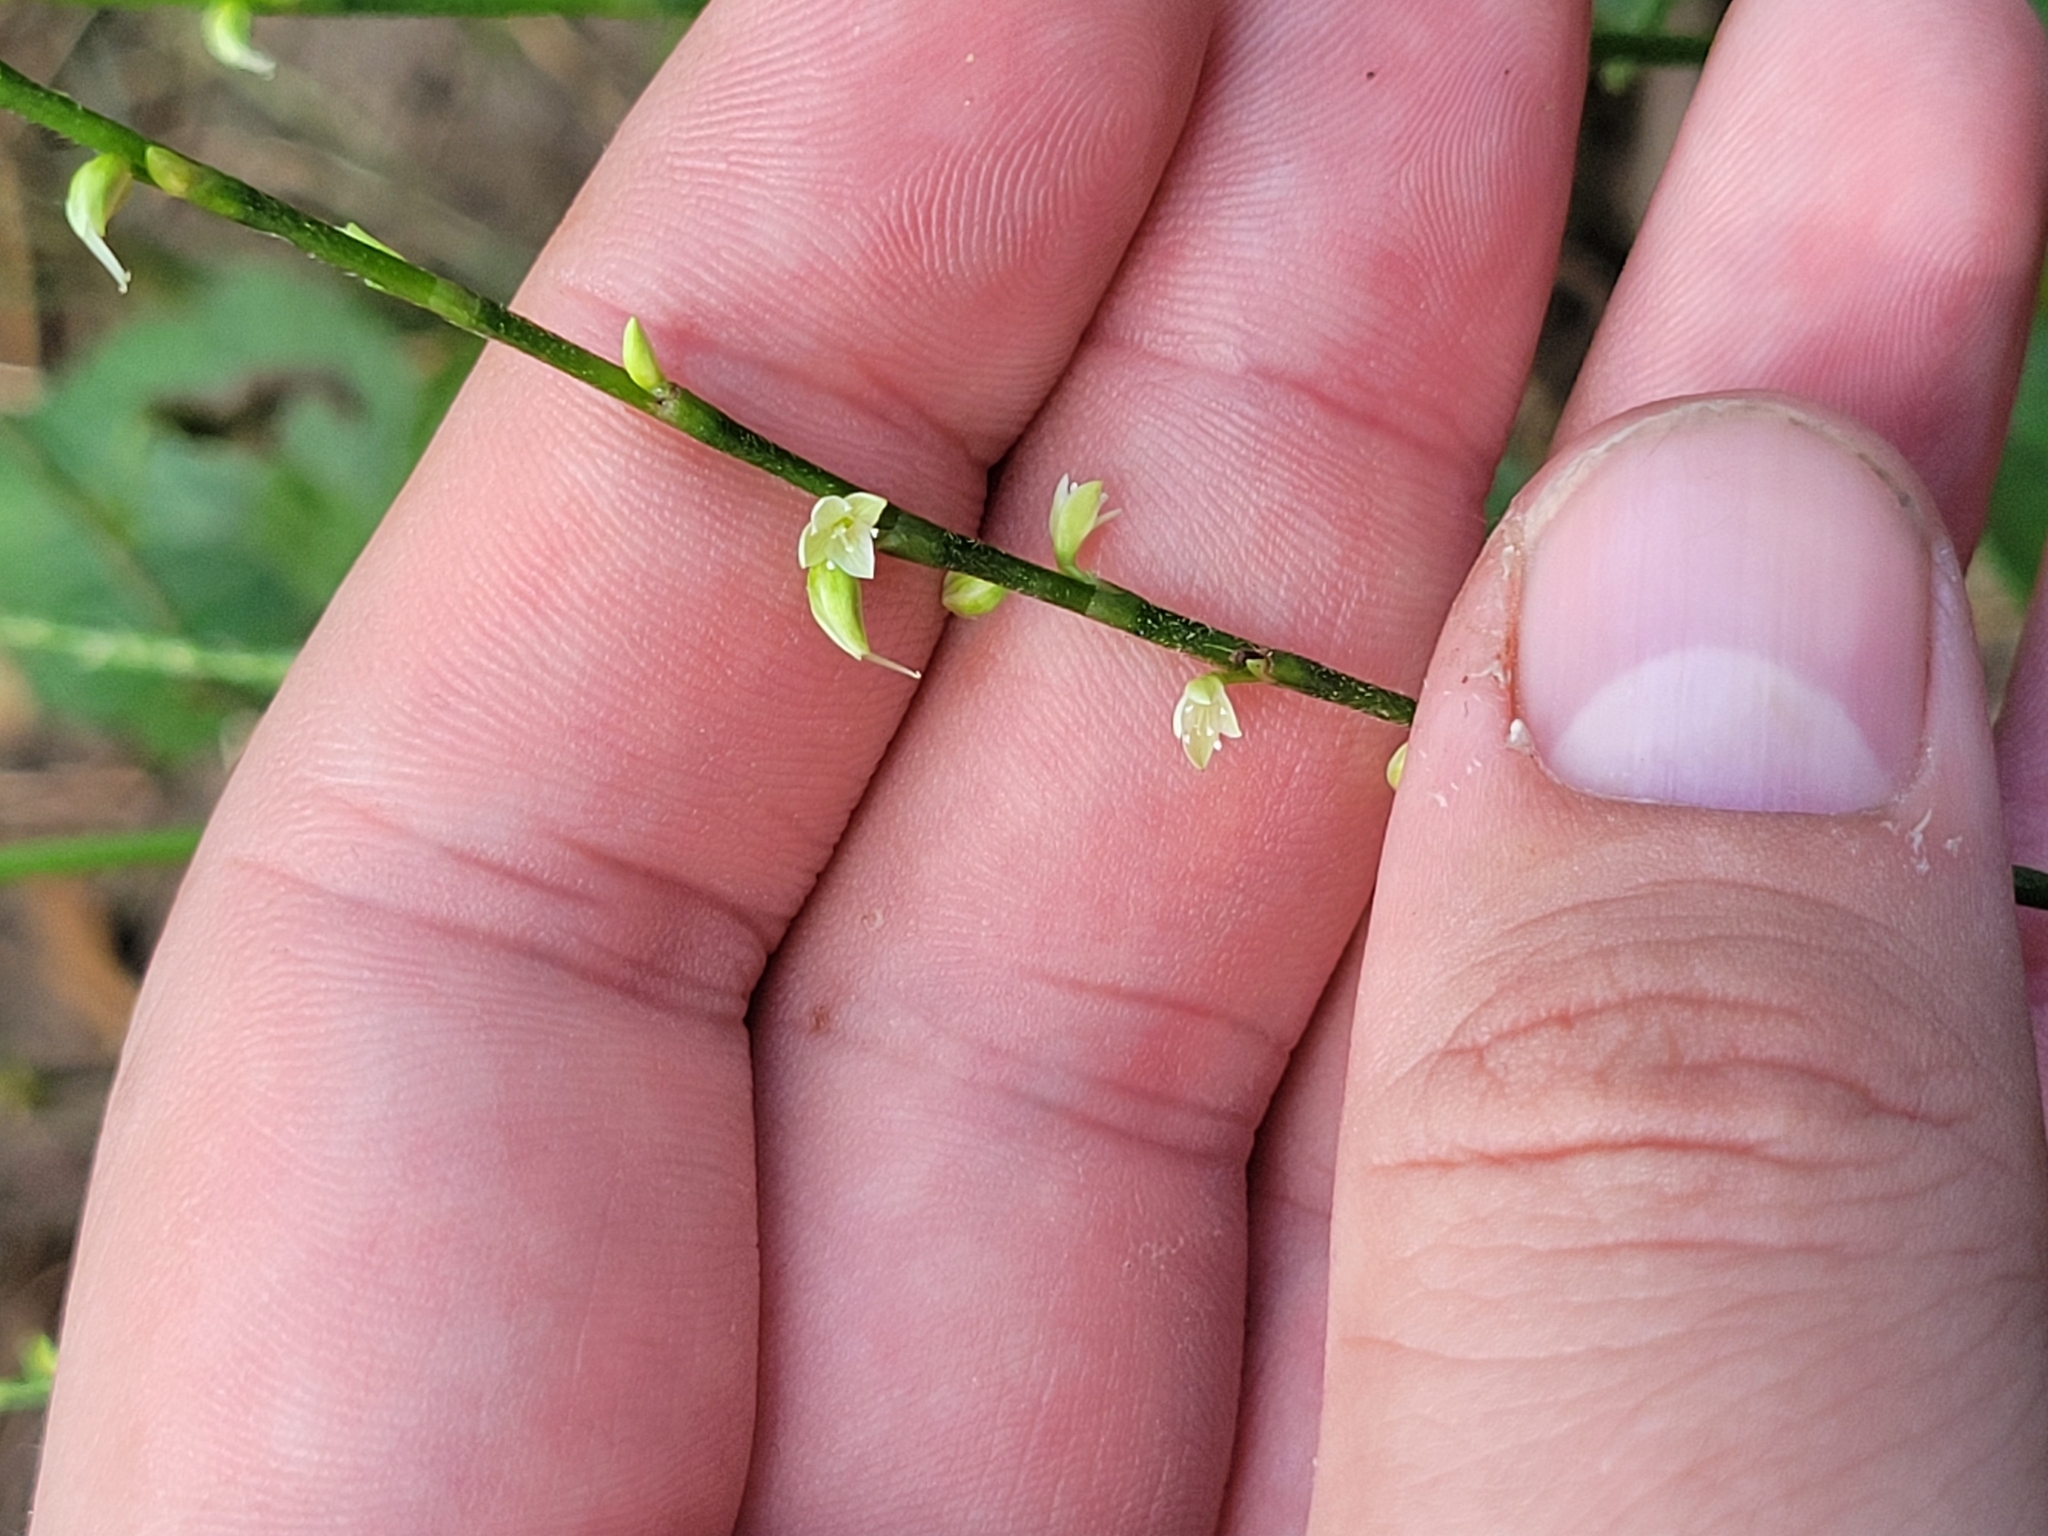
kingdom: Plantae
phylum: Tracheophyta
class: Magnoliopsida
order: Caryophyllales
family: Polygonaceae
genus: Persicaria
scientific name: Persicaria virginiana
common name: Jumpseed
